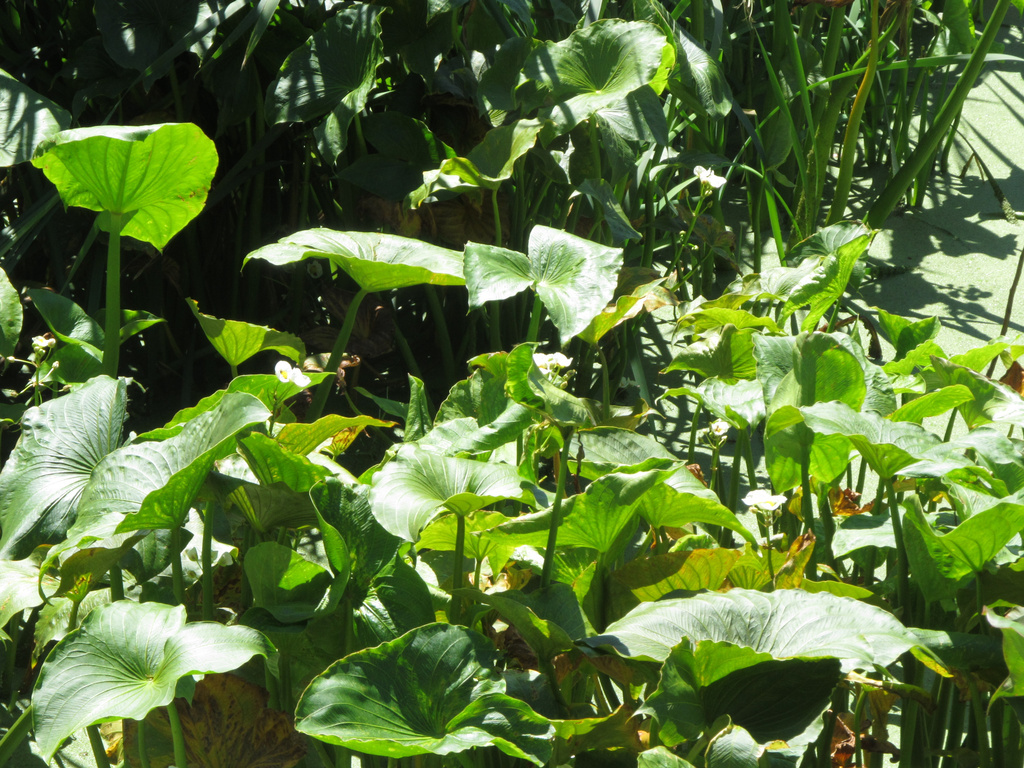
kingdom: Plantae
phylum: Tracheophyta
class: Liliopsida
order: Alismatales
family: Alismataceae
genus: Sagittaria
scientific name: Sagittaria montevidensis
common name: Giant arrowhead
